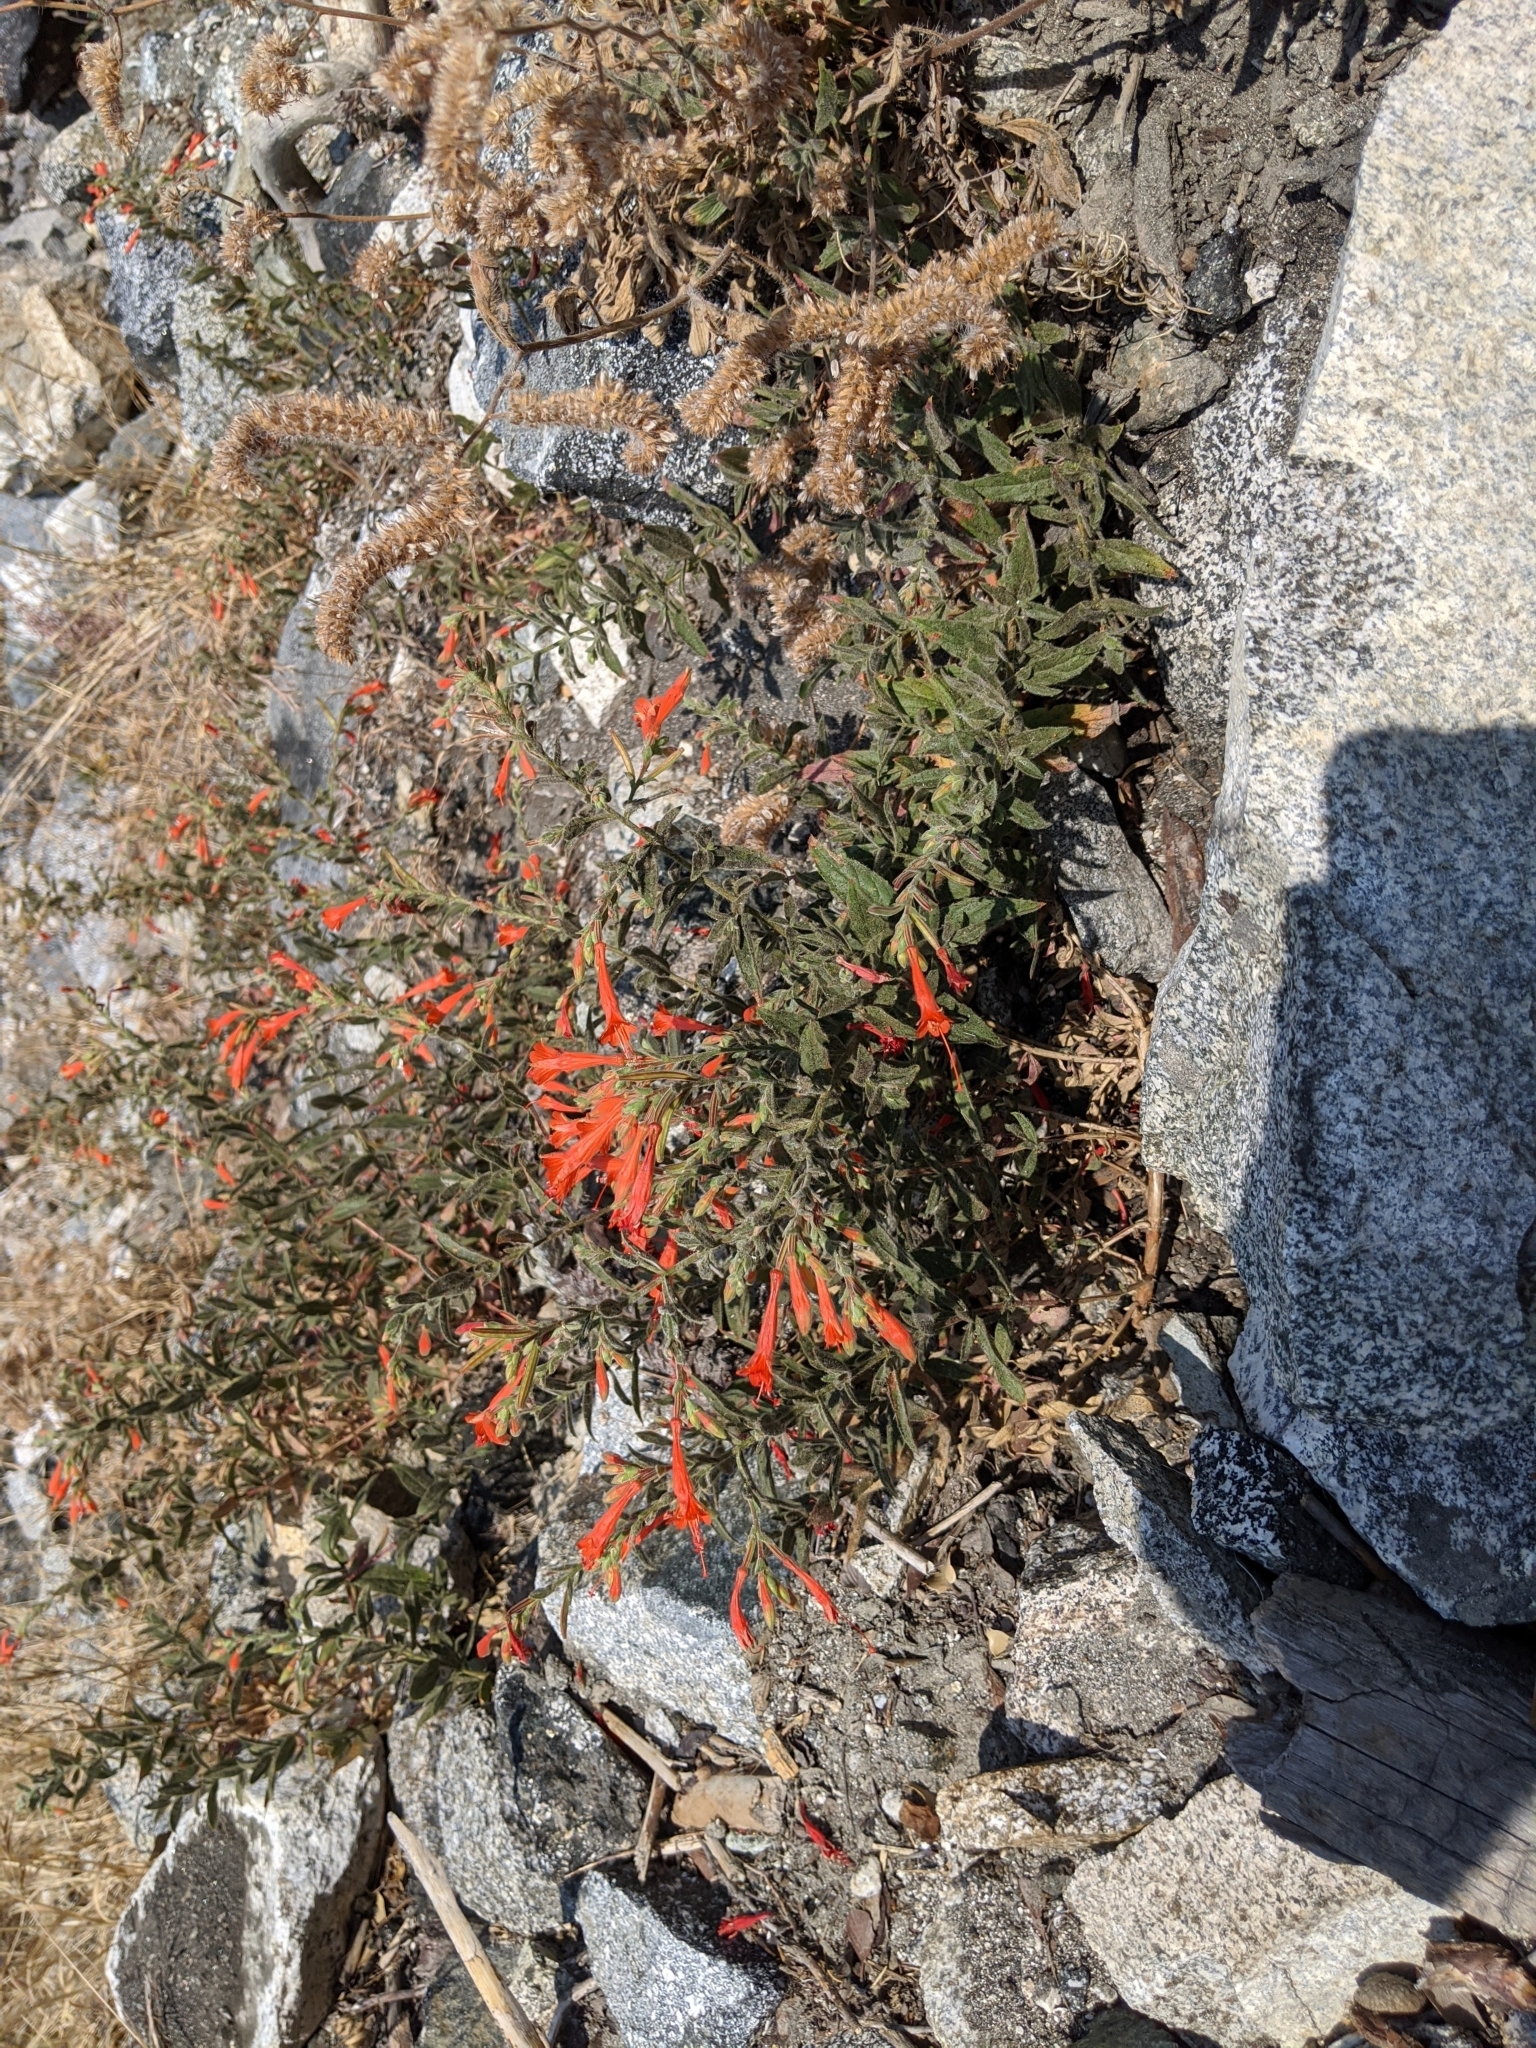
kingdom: Plantae
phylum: Tracheophyta
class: Magnoliopsida
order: Myrtales
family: Onagraceae
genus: Epilobium
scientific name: Epilobium canum
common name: California-fuchsia
